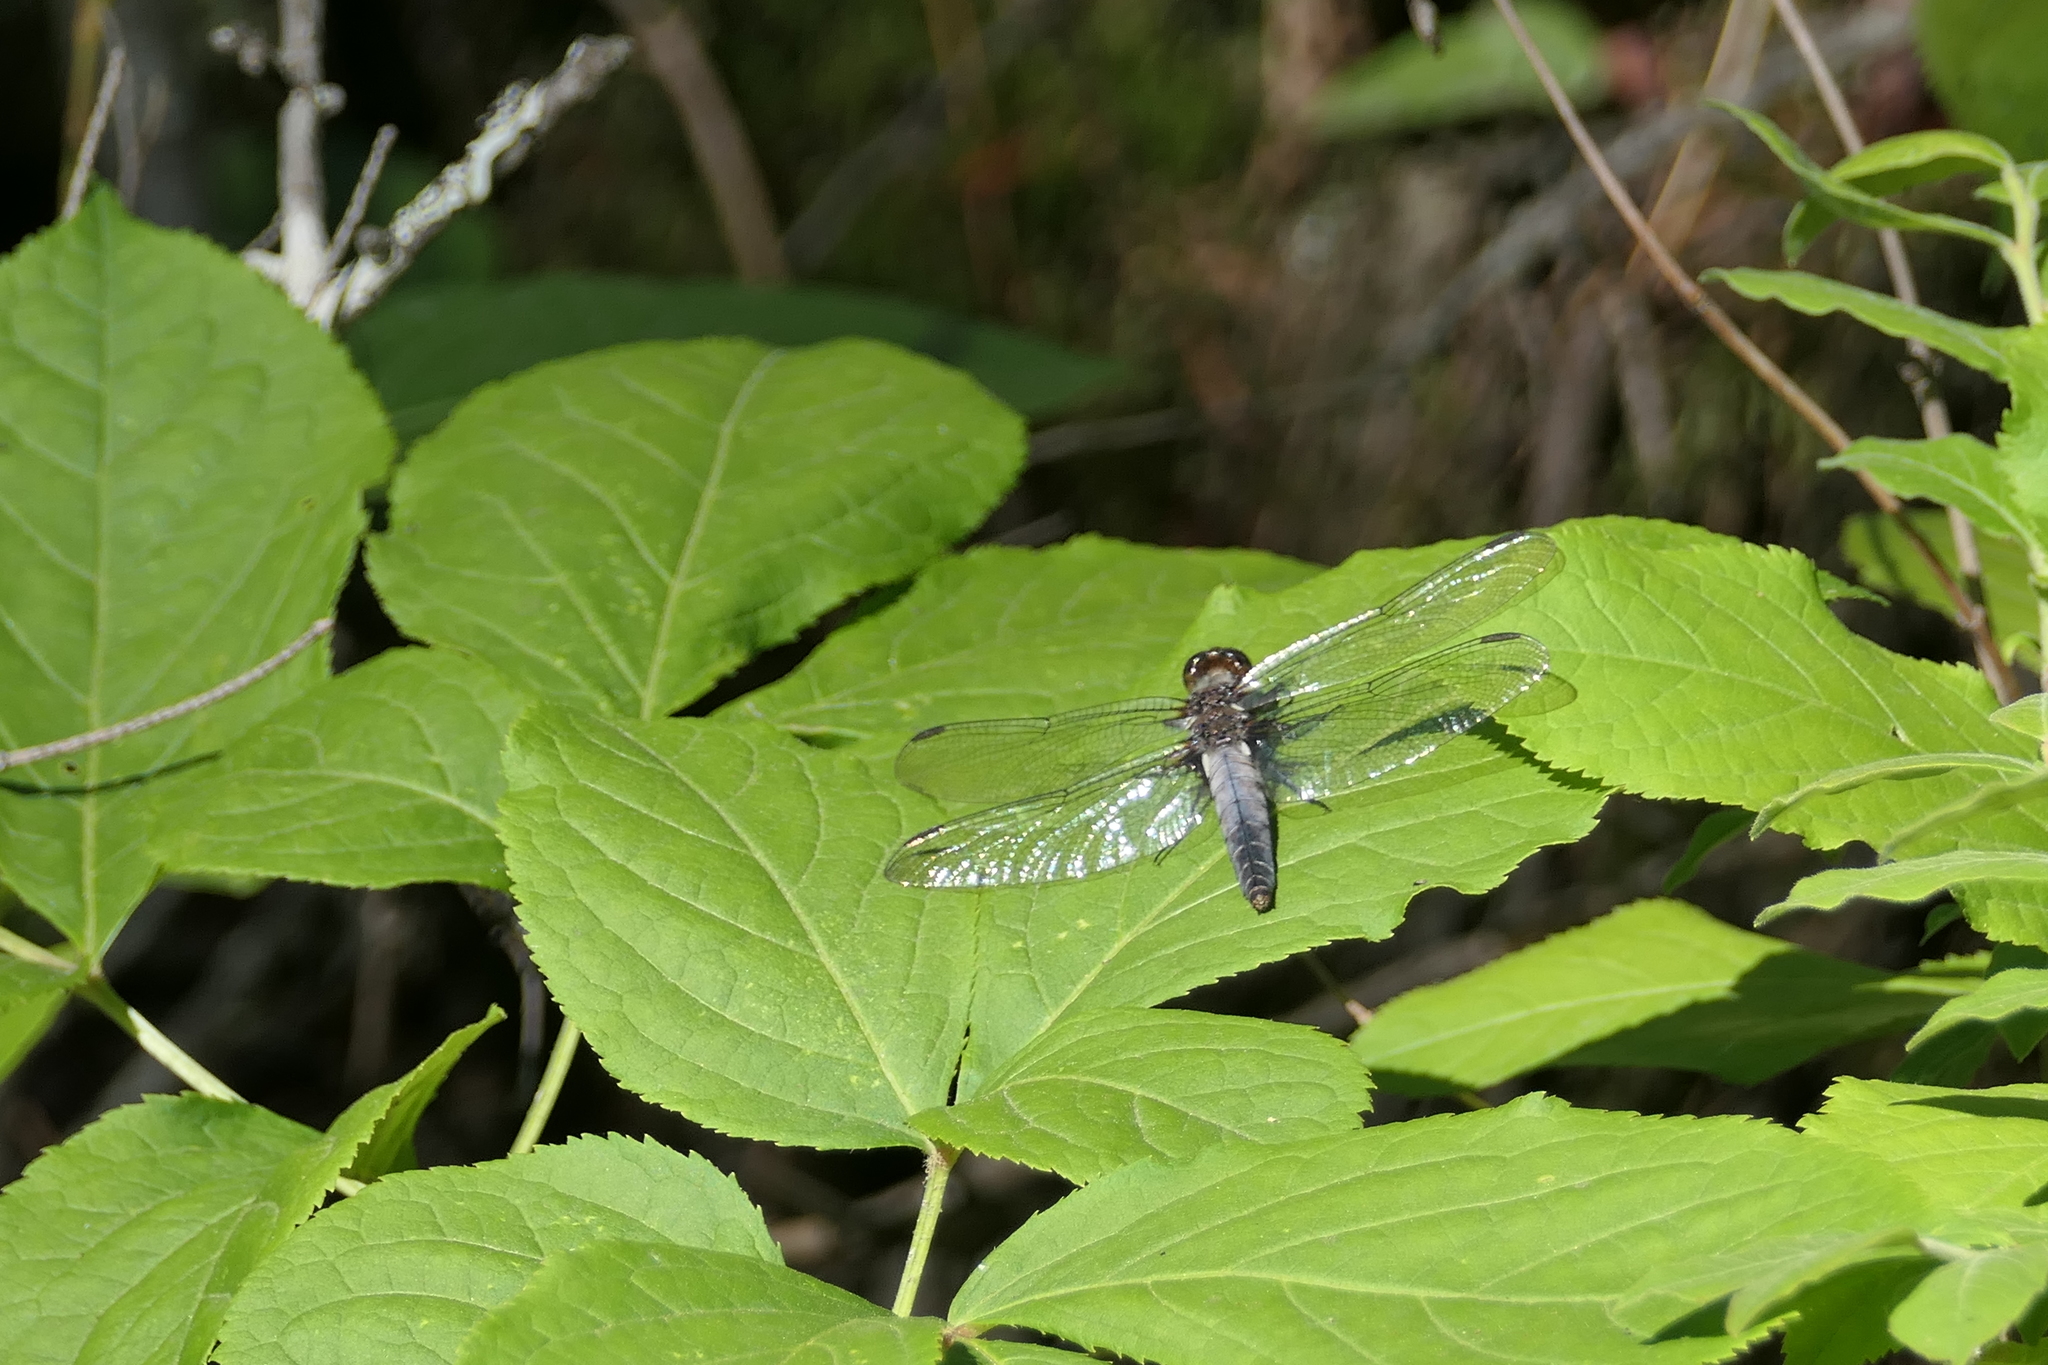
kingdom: Animalia
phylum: Arthropoda
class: Insecta
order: Odonata
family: Libellulidae
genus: Ladona
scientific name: Ladona julia
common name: Chalk-fronted corporal
